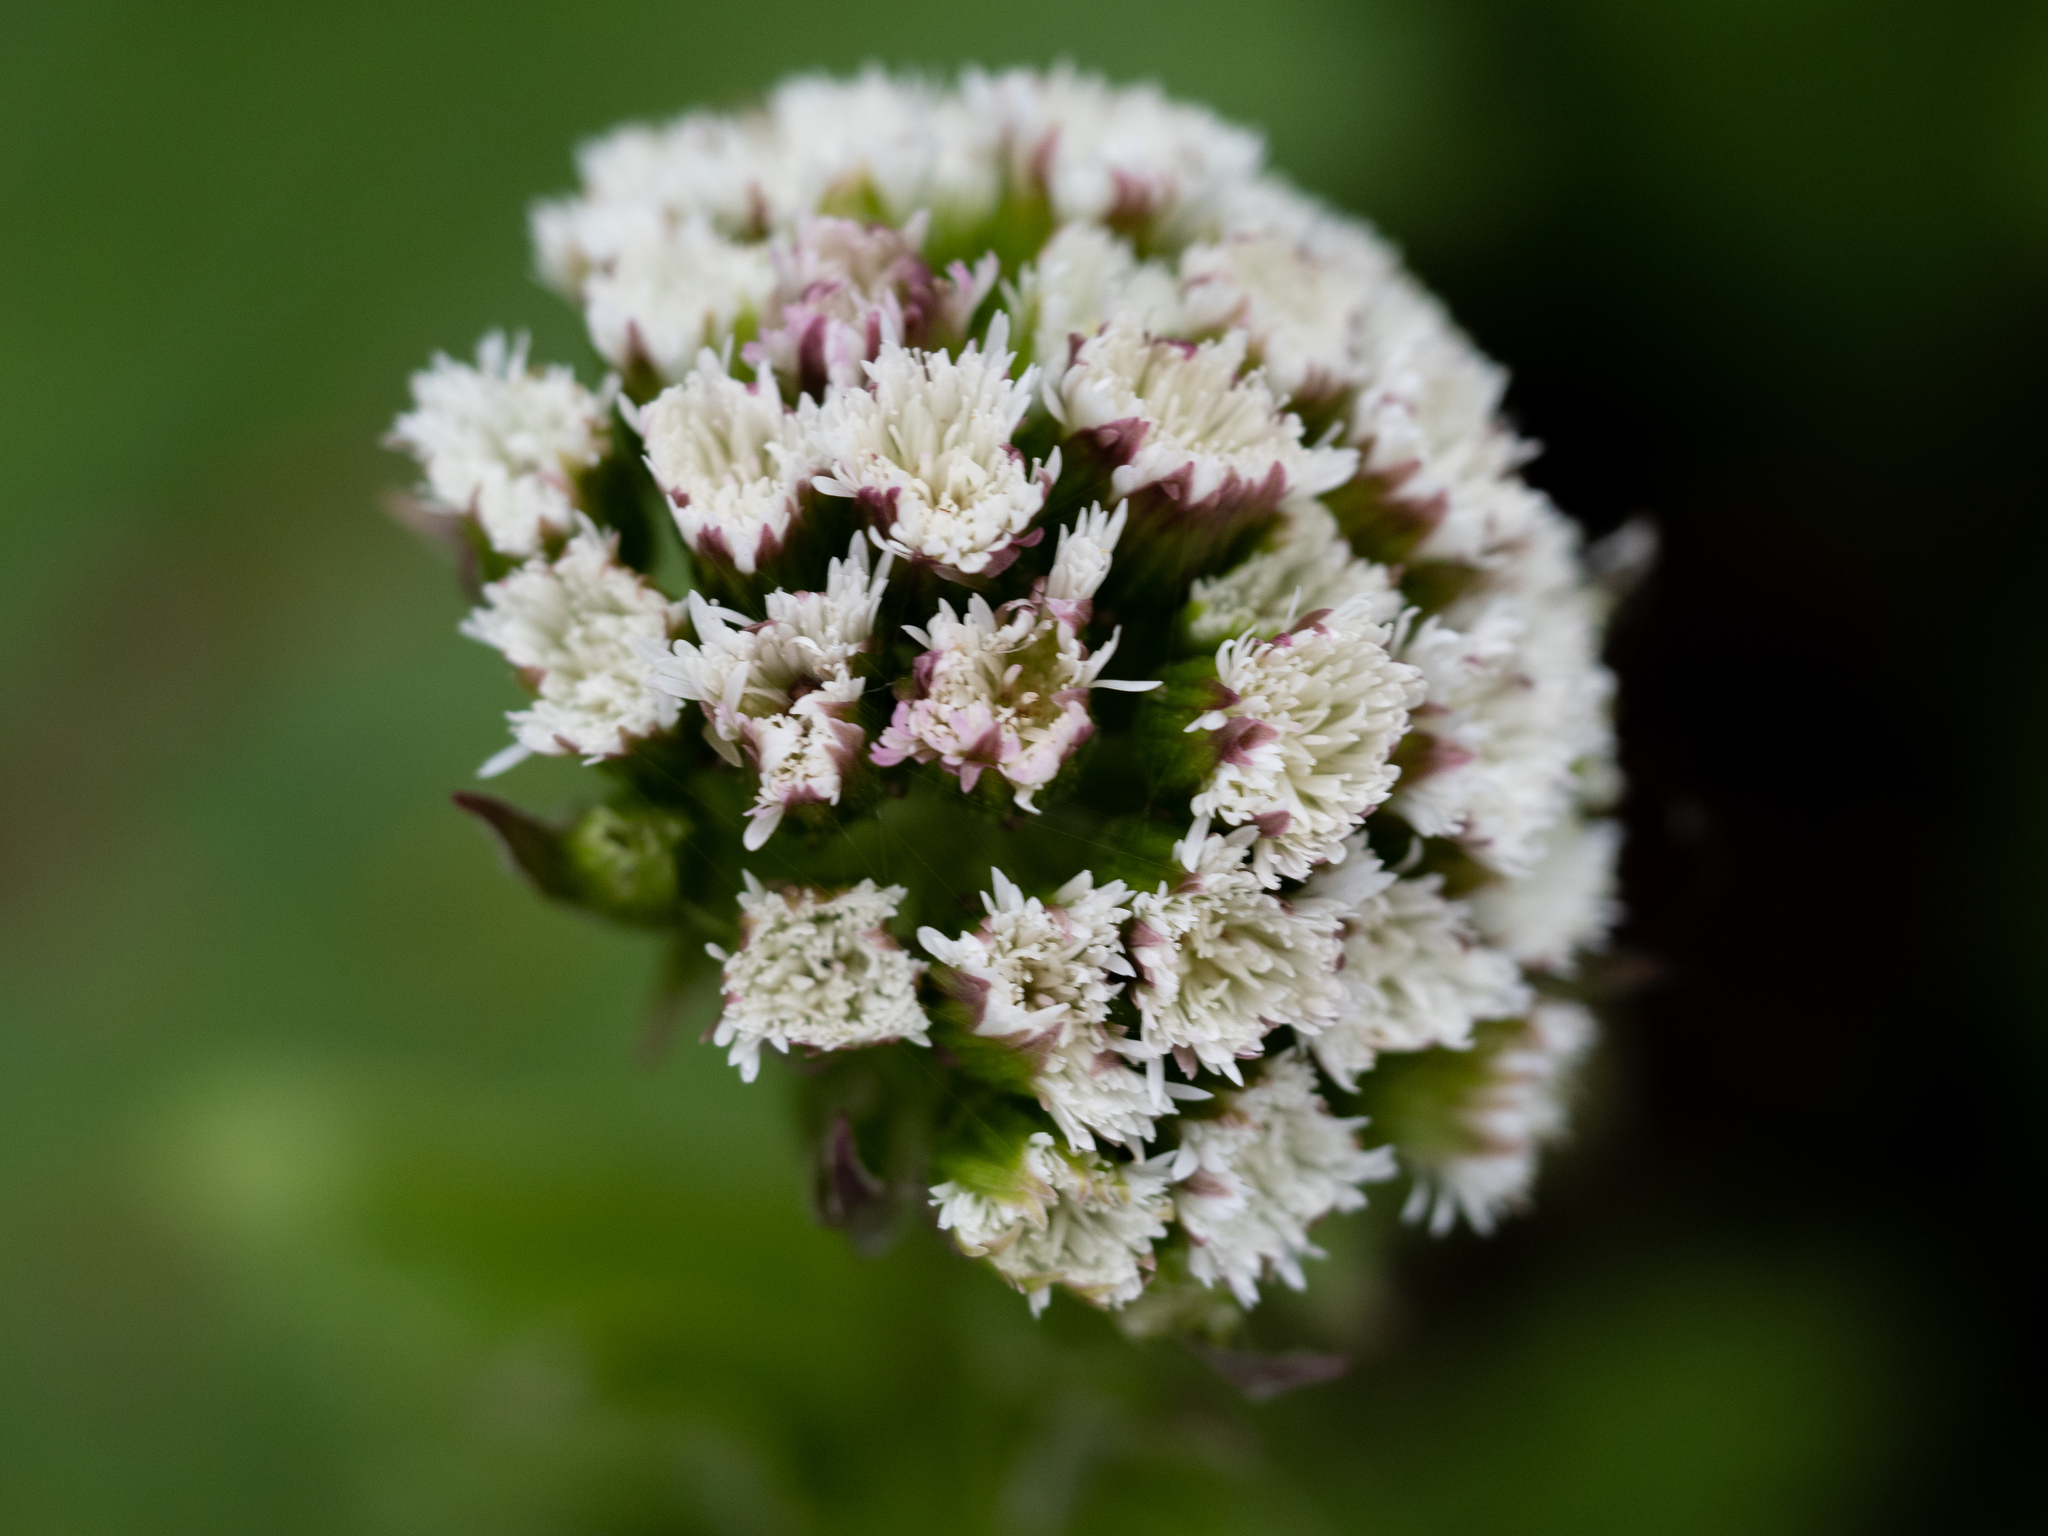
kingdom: Plantae
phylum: Tracheophyta
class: Magnoliopsida
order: Asterales
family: Asteraceae
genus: Petasites
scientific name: Petasites frigidus
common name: Arctic butterbur
